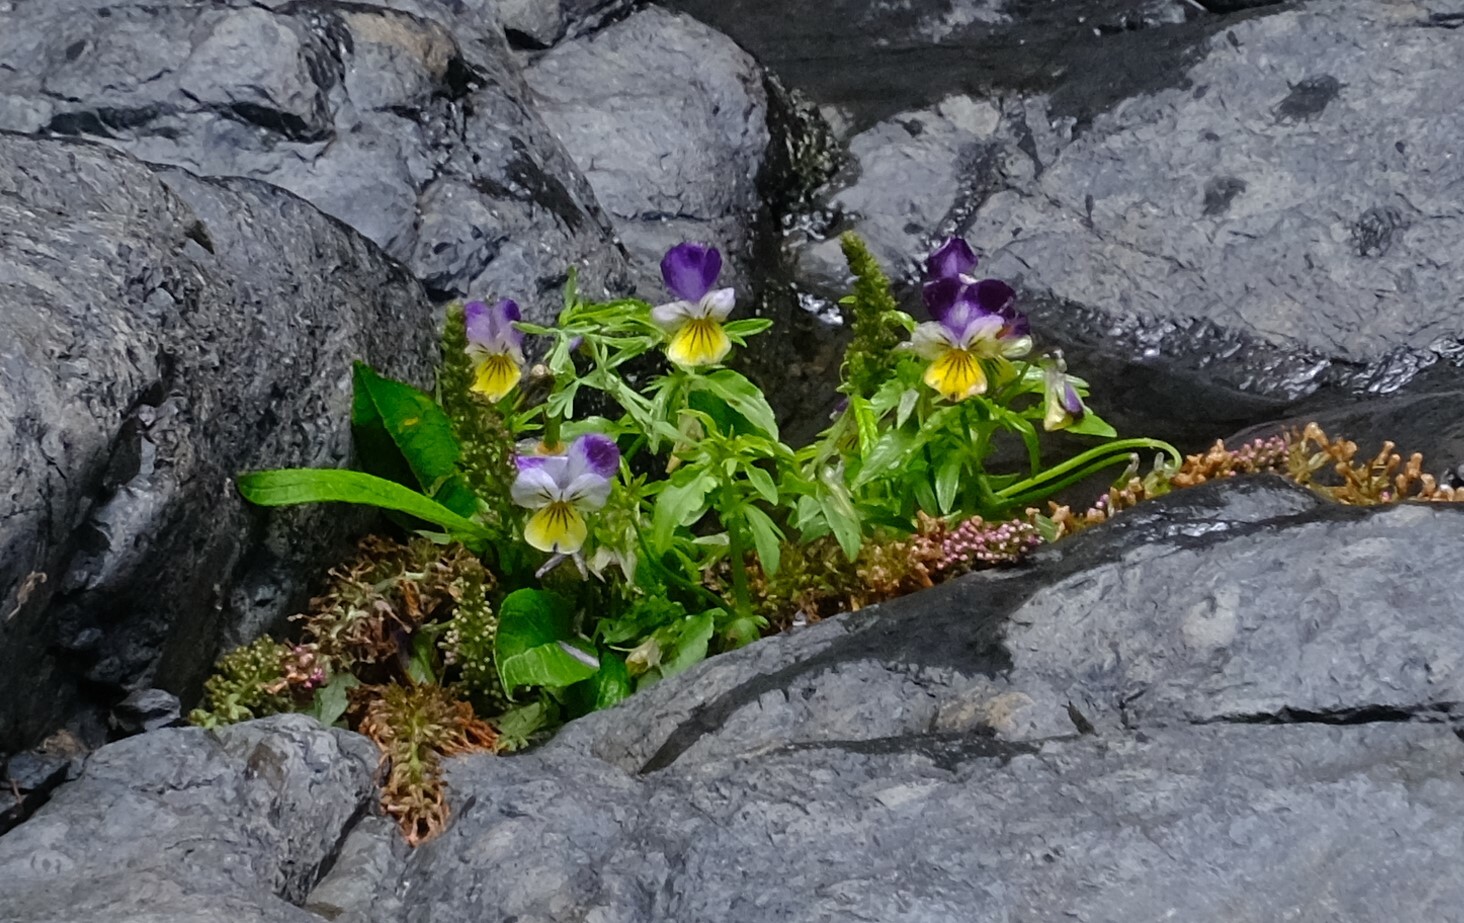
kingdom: Plantae
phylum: Tracheophyta
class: Magnoliopsida
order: Malpighiales
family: Violaceae
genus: Viola
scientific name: Viola williamsii
